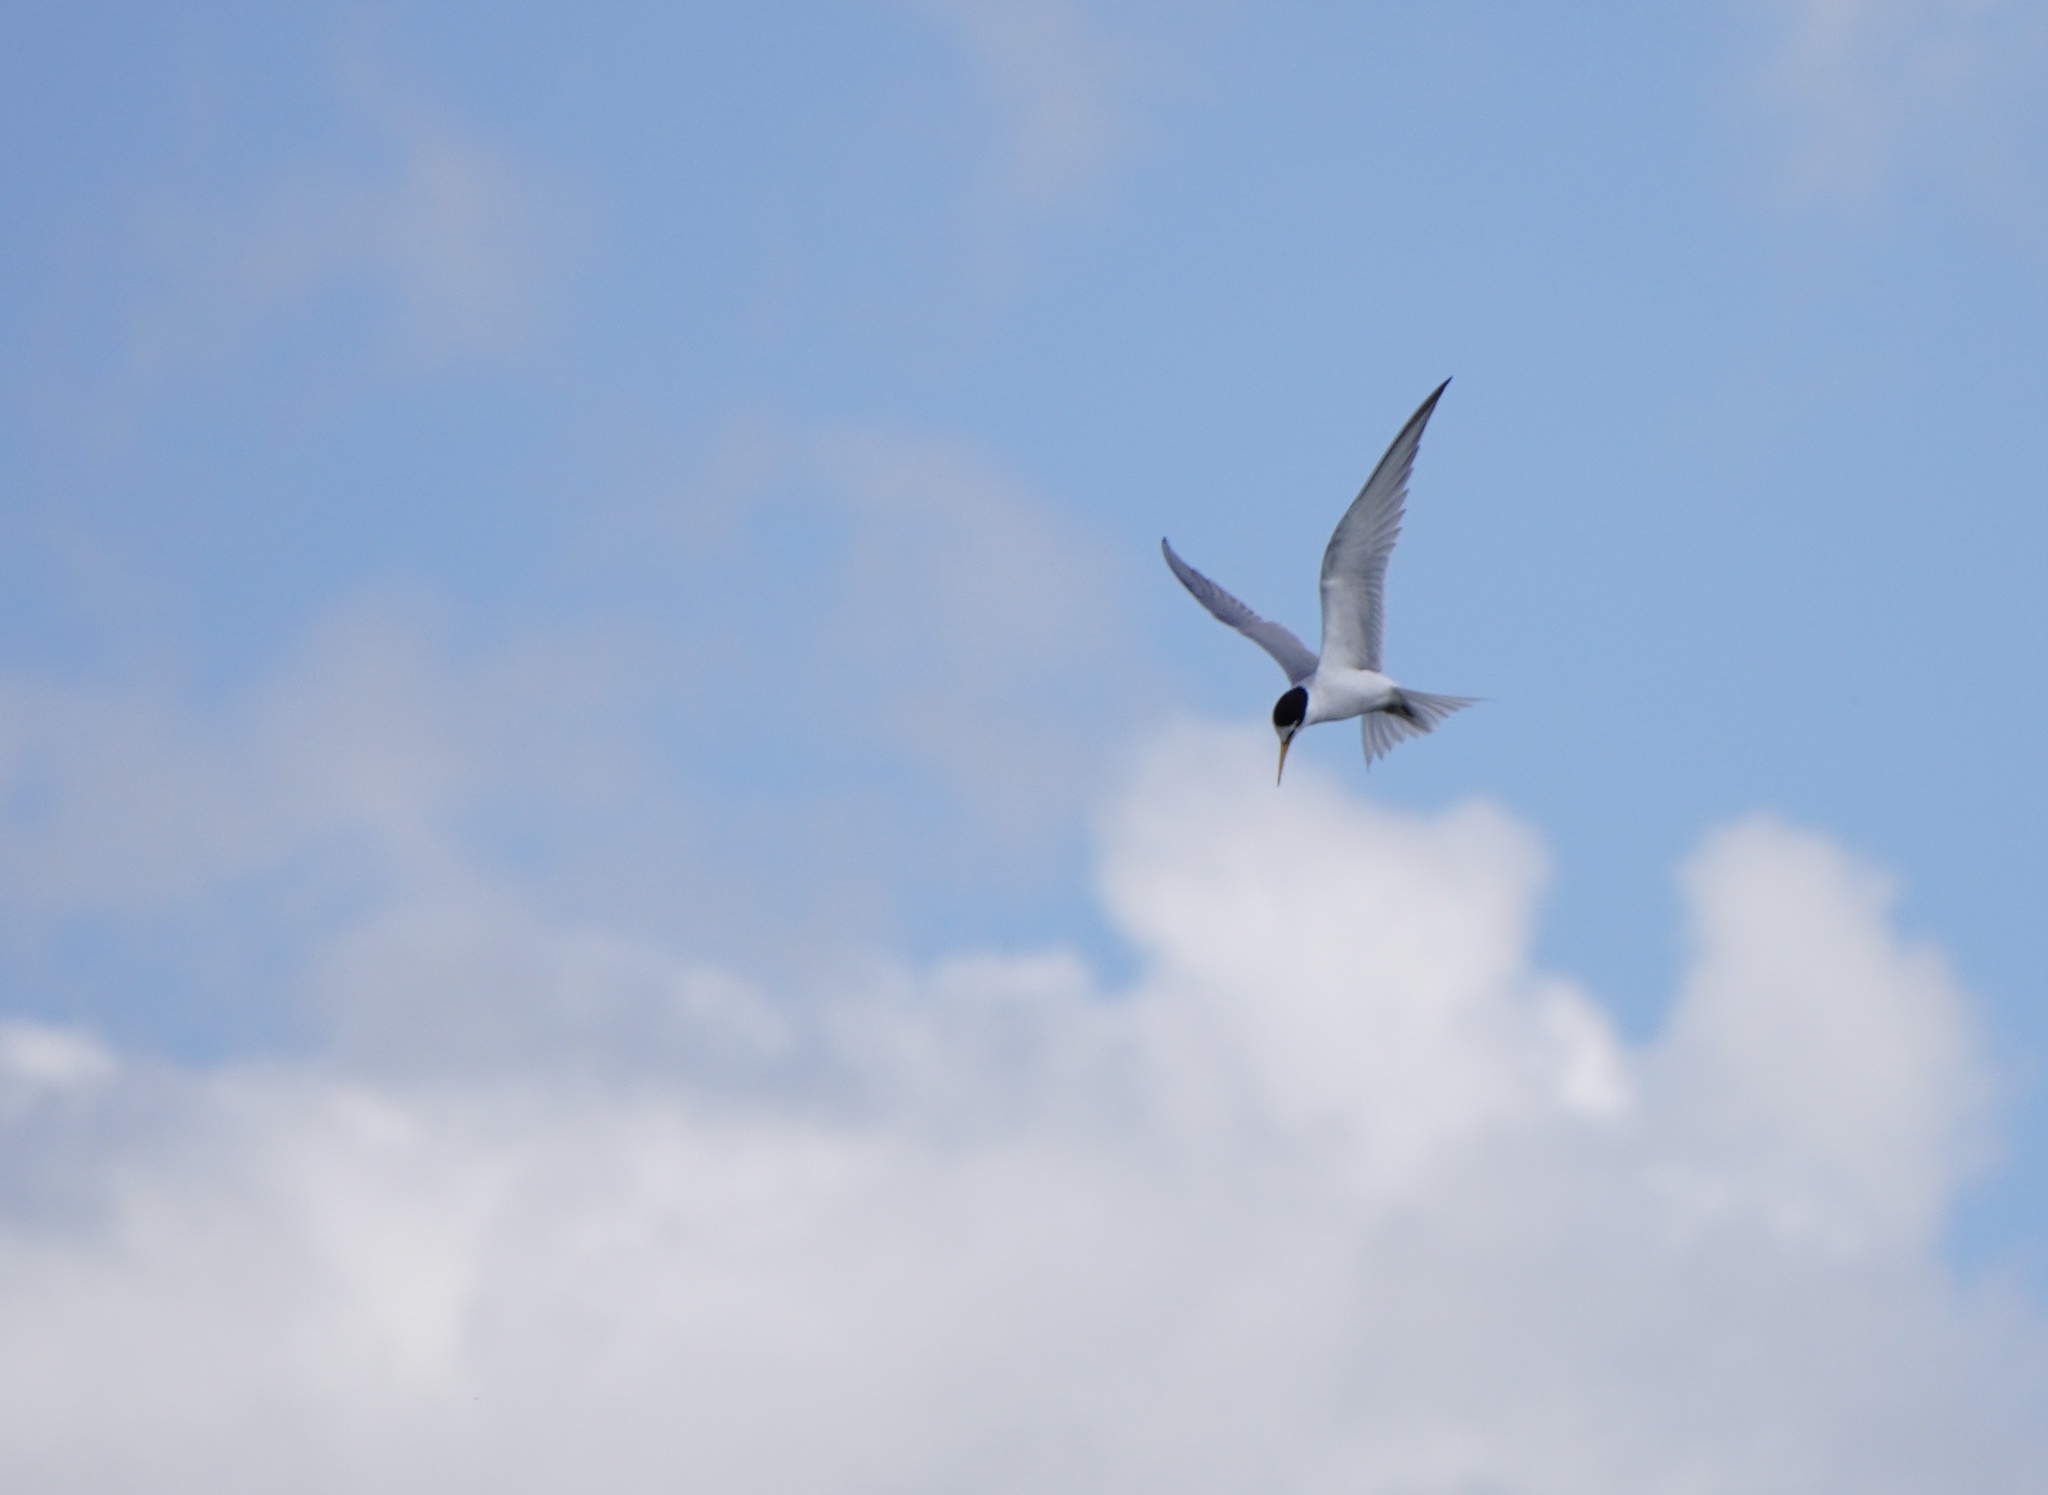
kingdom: Animalia
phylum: Chordata
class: Aves
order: Charadriiformes
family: Laridae
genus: Sterna
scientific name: Sterna hirundo
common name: Common tern
